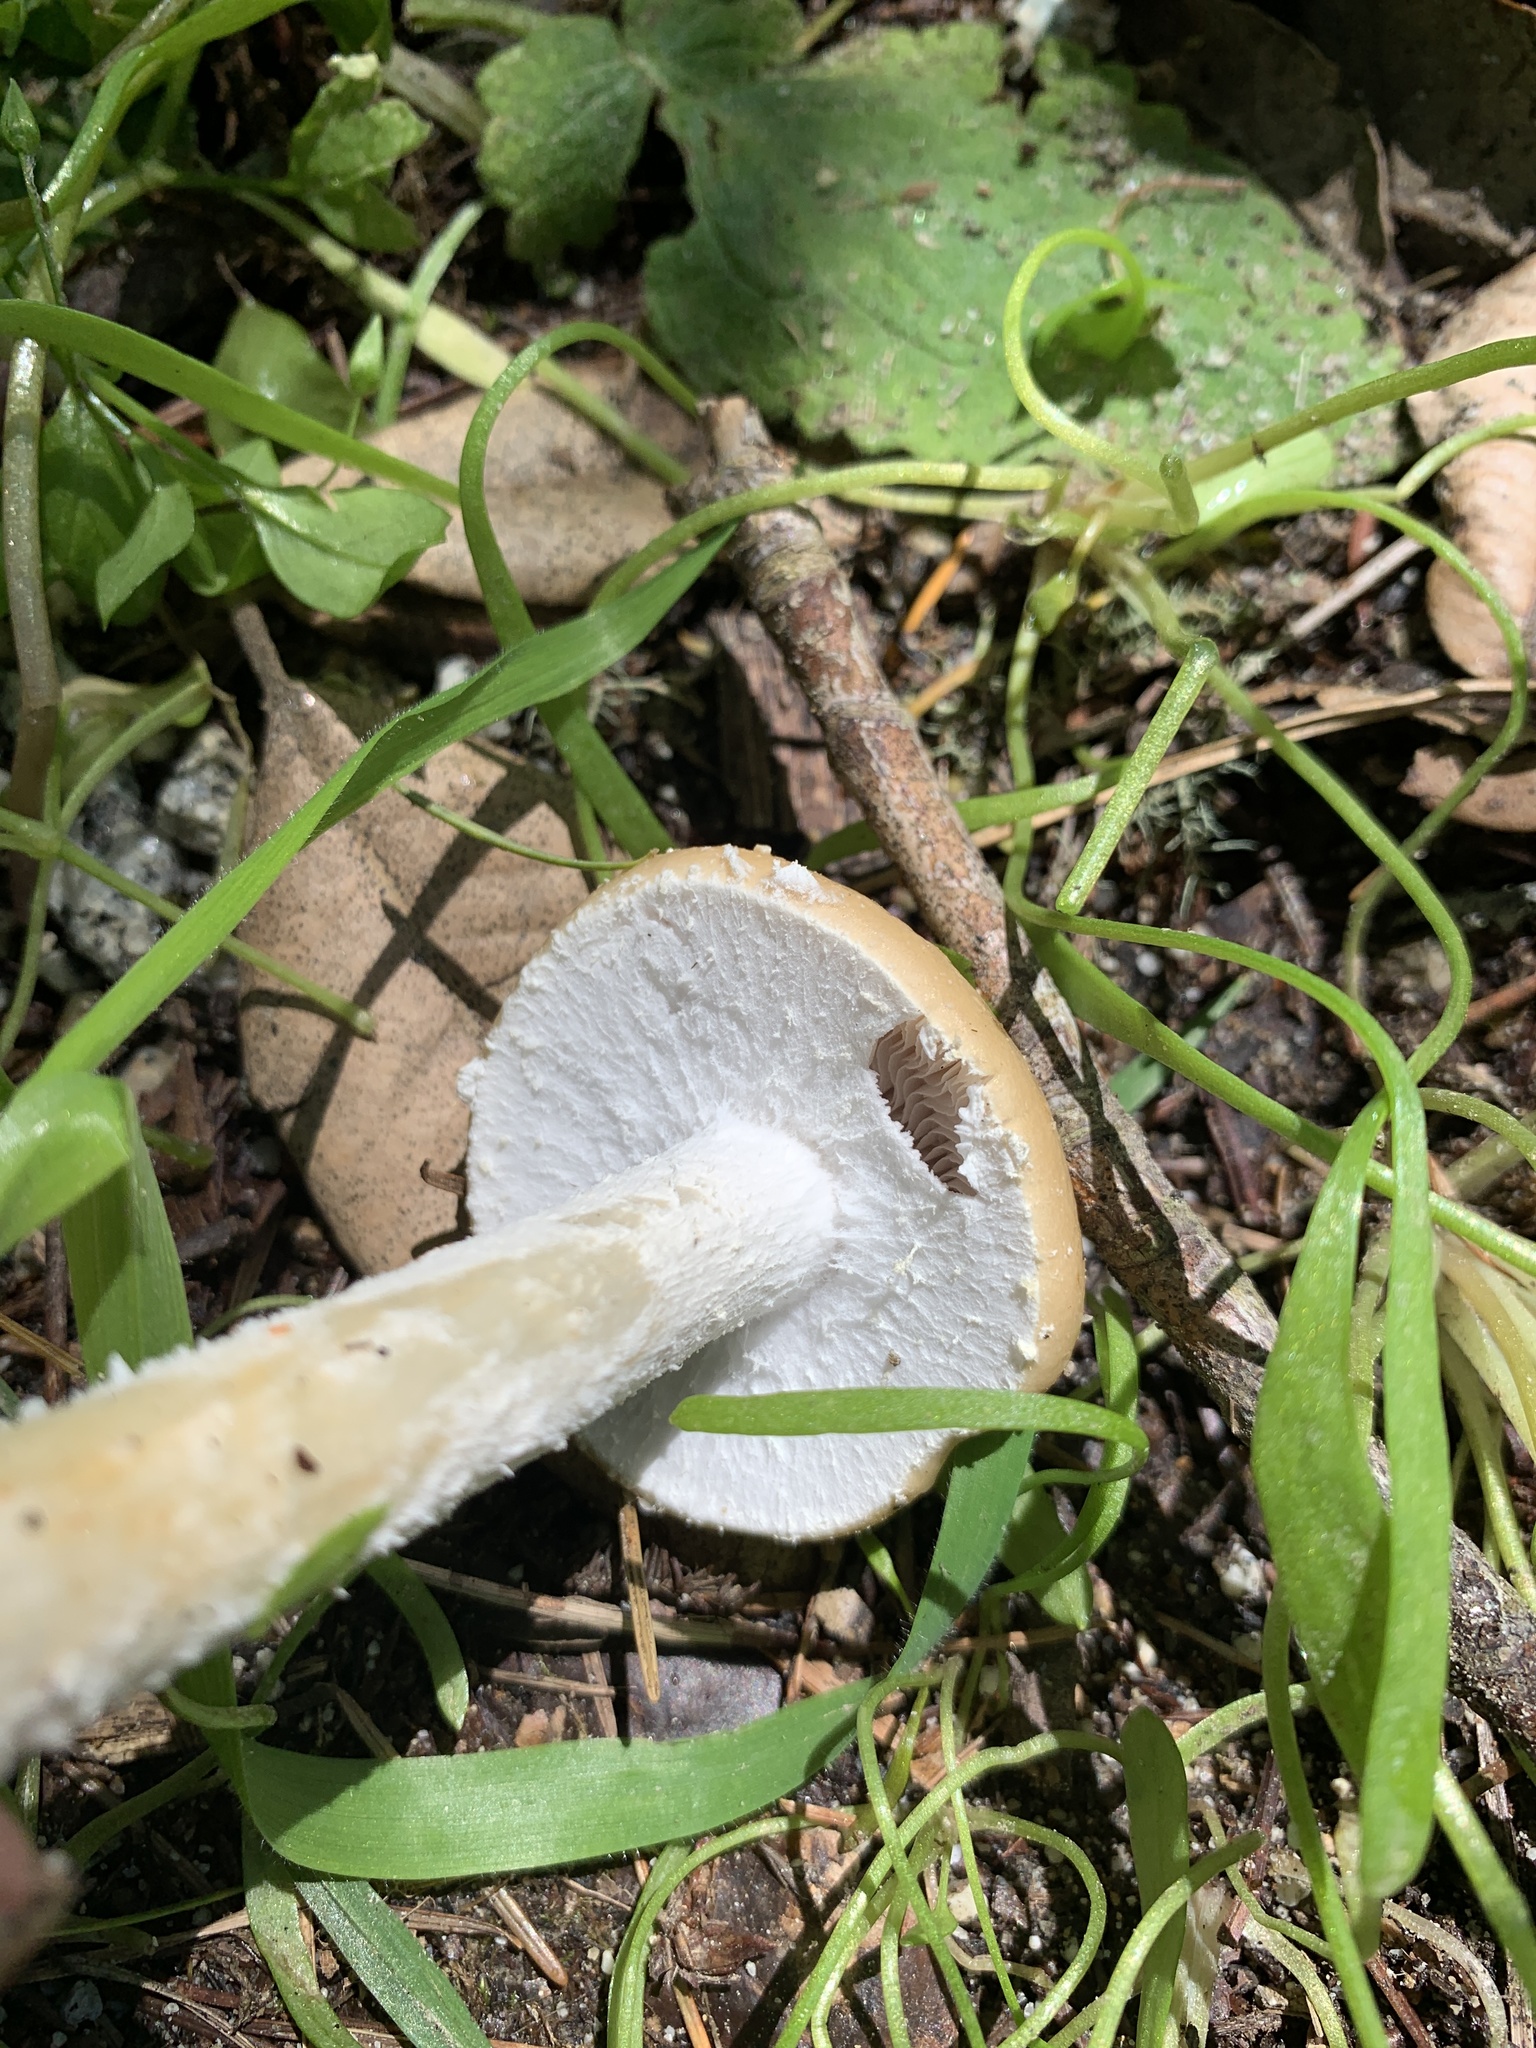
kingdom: Fungi
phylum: Basidiomycota
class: Agaricomycetes
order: Agaricales
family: Strophariaceae
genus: Stropharia
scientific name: Stropharia ambigua
